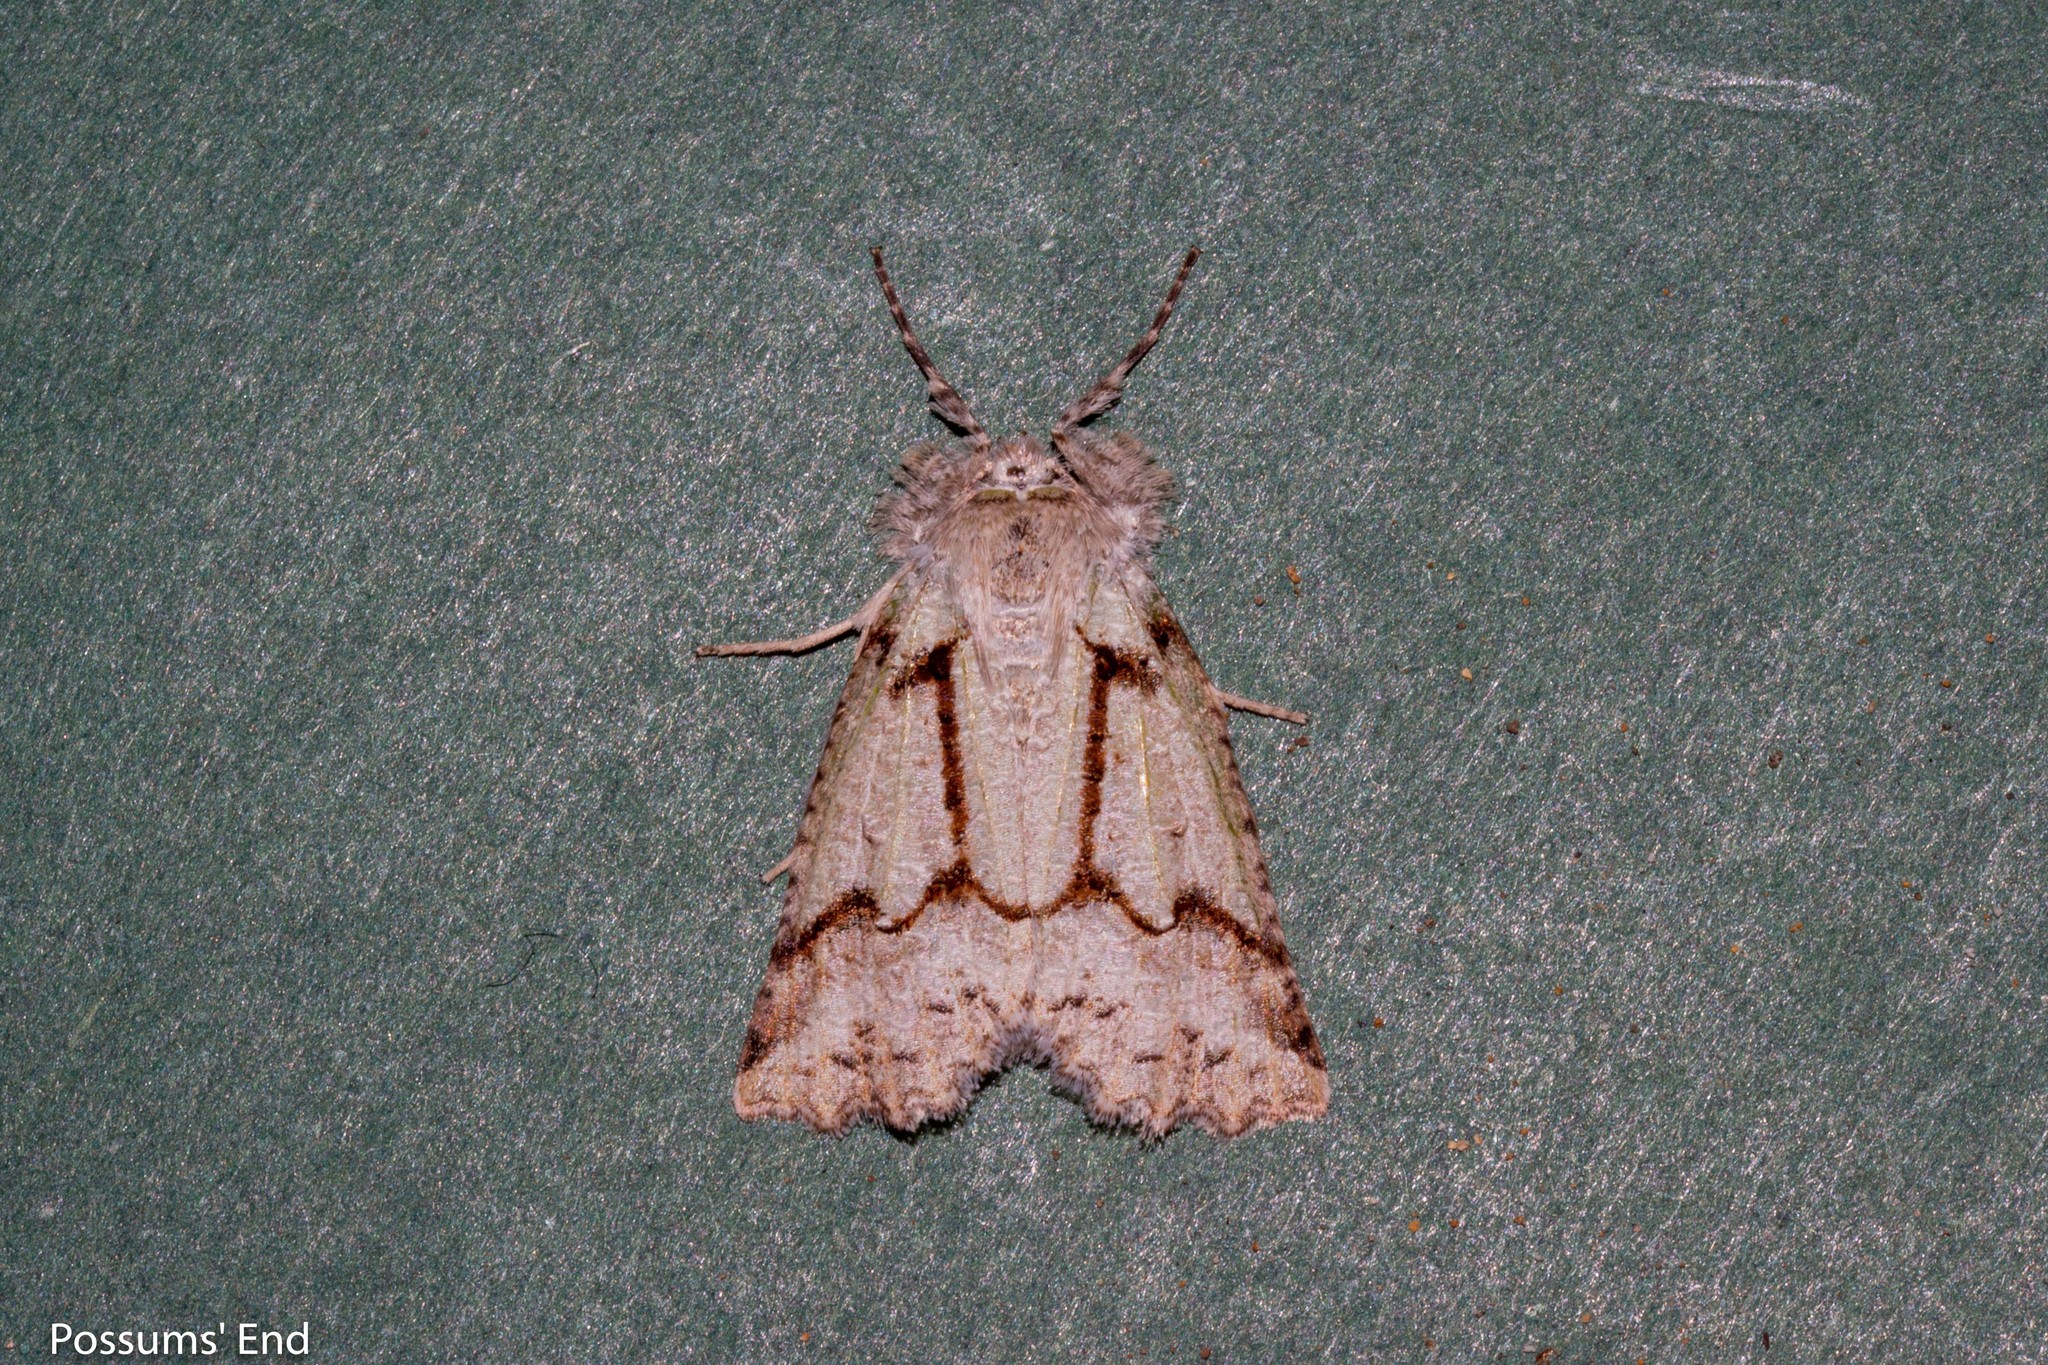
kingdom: Animalia
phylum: Arthropoda
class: Insecta
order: Lepidoptera
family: Geometridae
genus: Declana
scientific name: Declana floccosa
